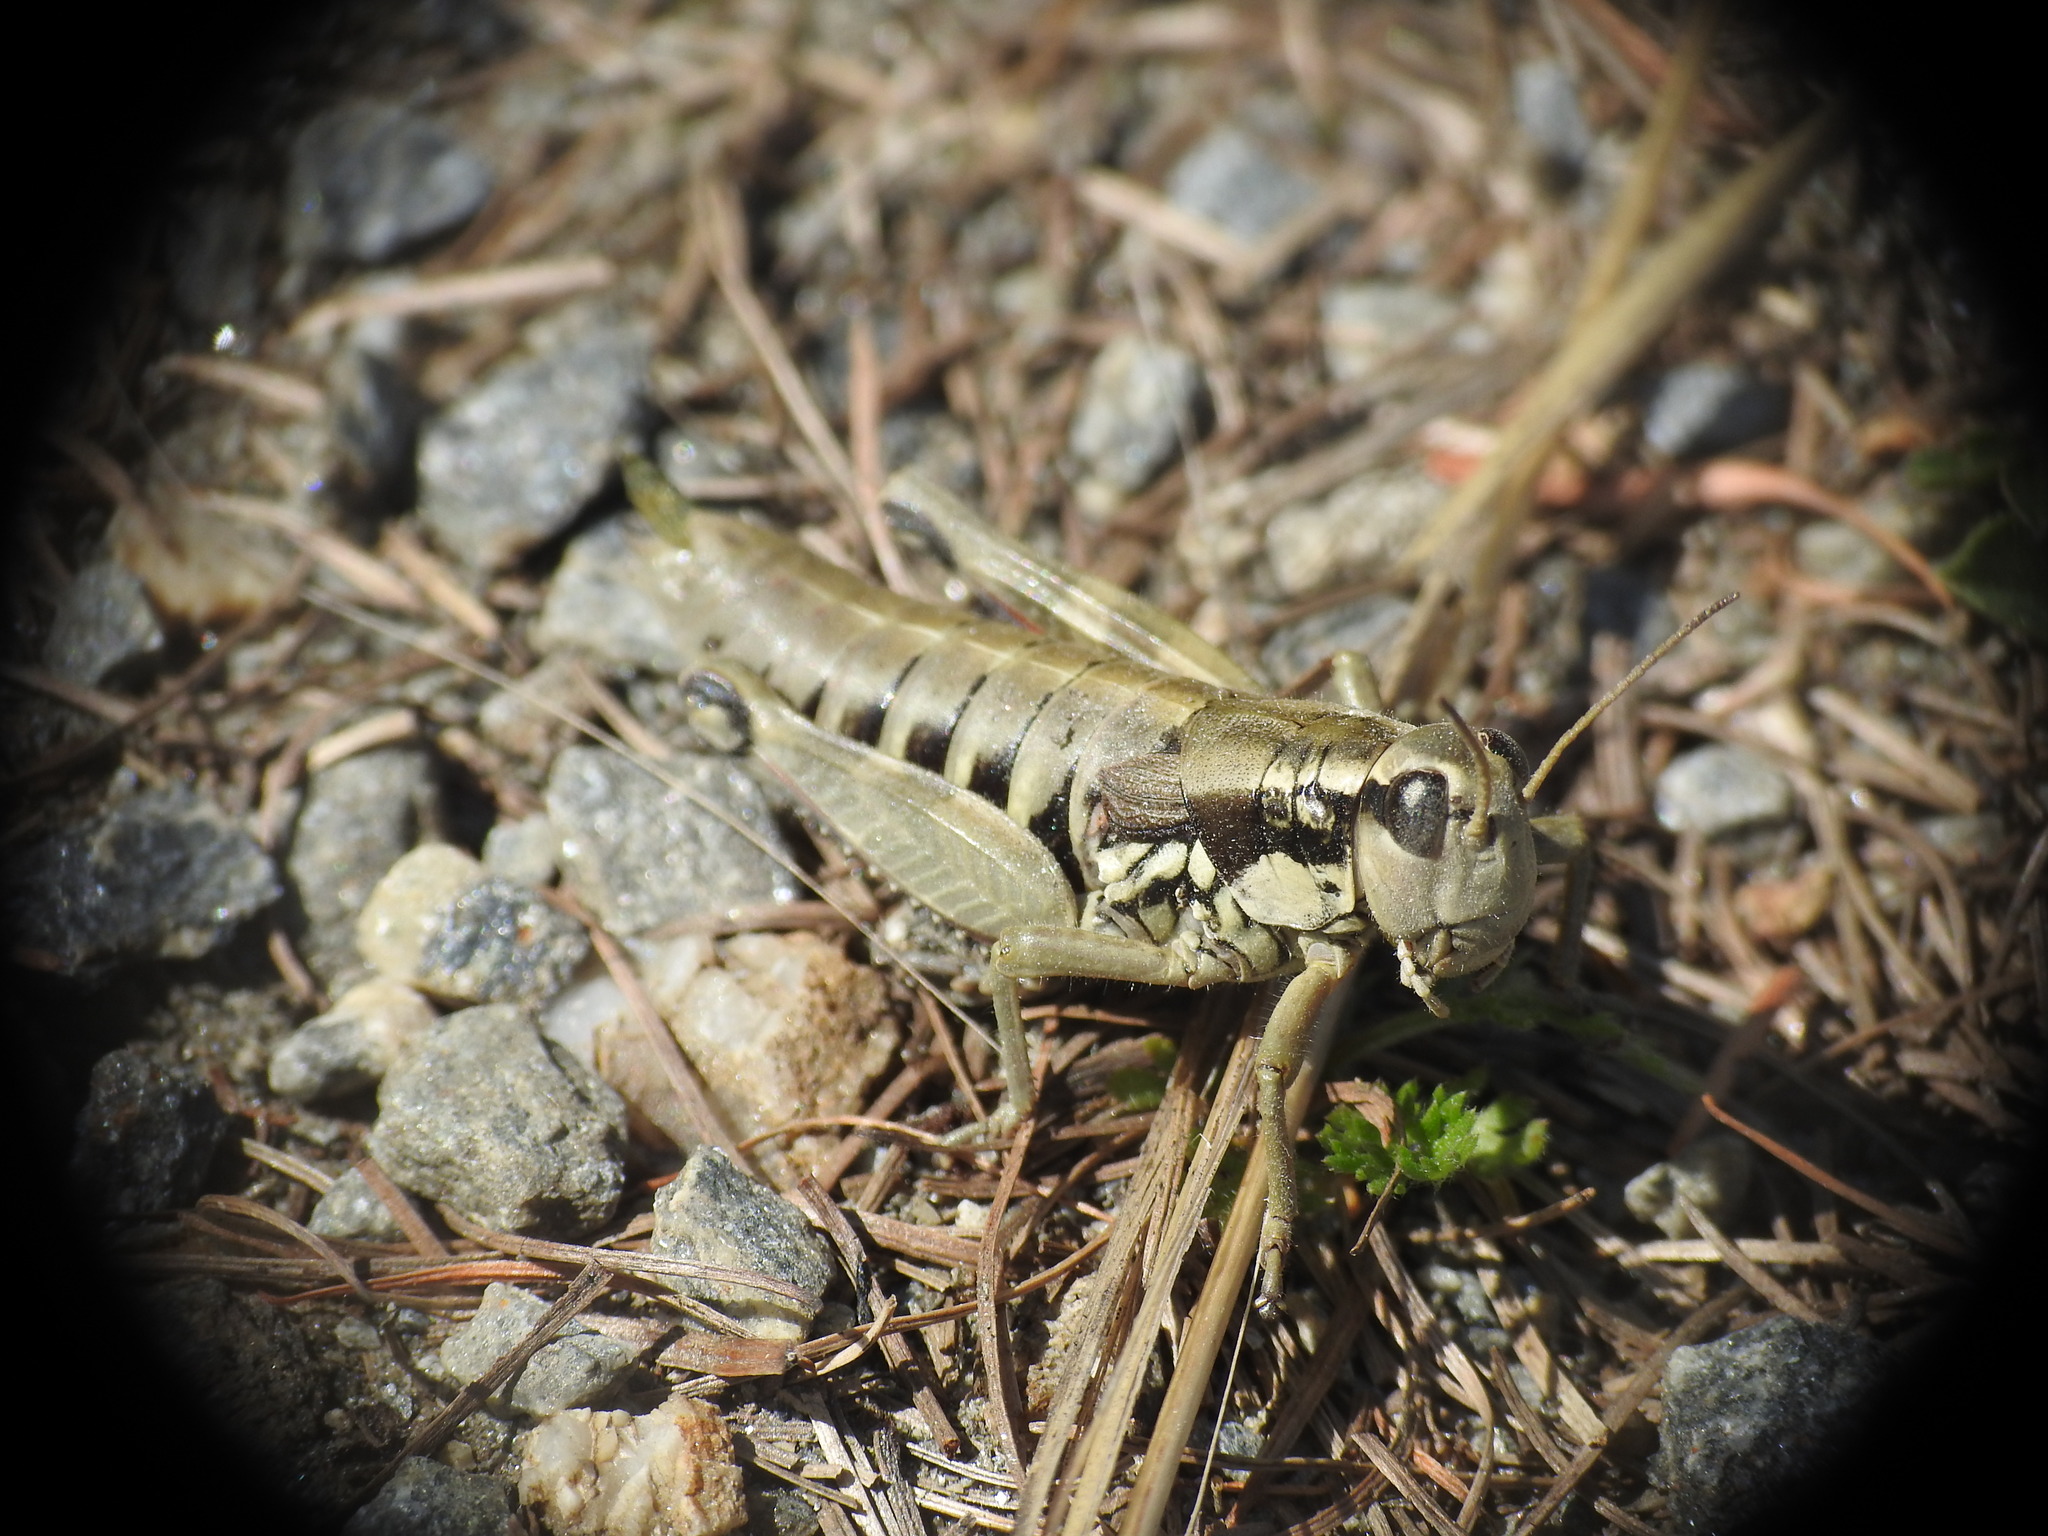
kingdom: Animalia
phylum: Arthropoda
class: Insecta
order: Orthoptera
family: Acrididae
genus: Podisma
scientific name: Podisma pedestris
